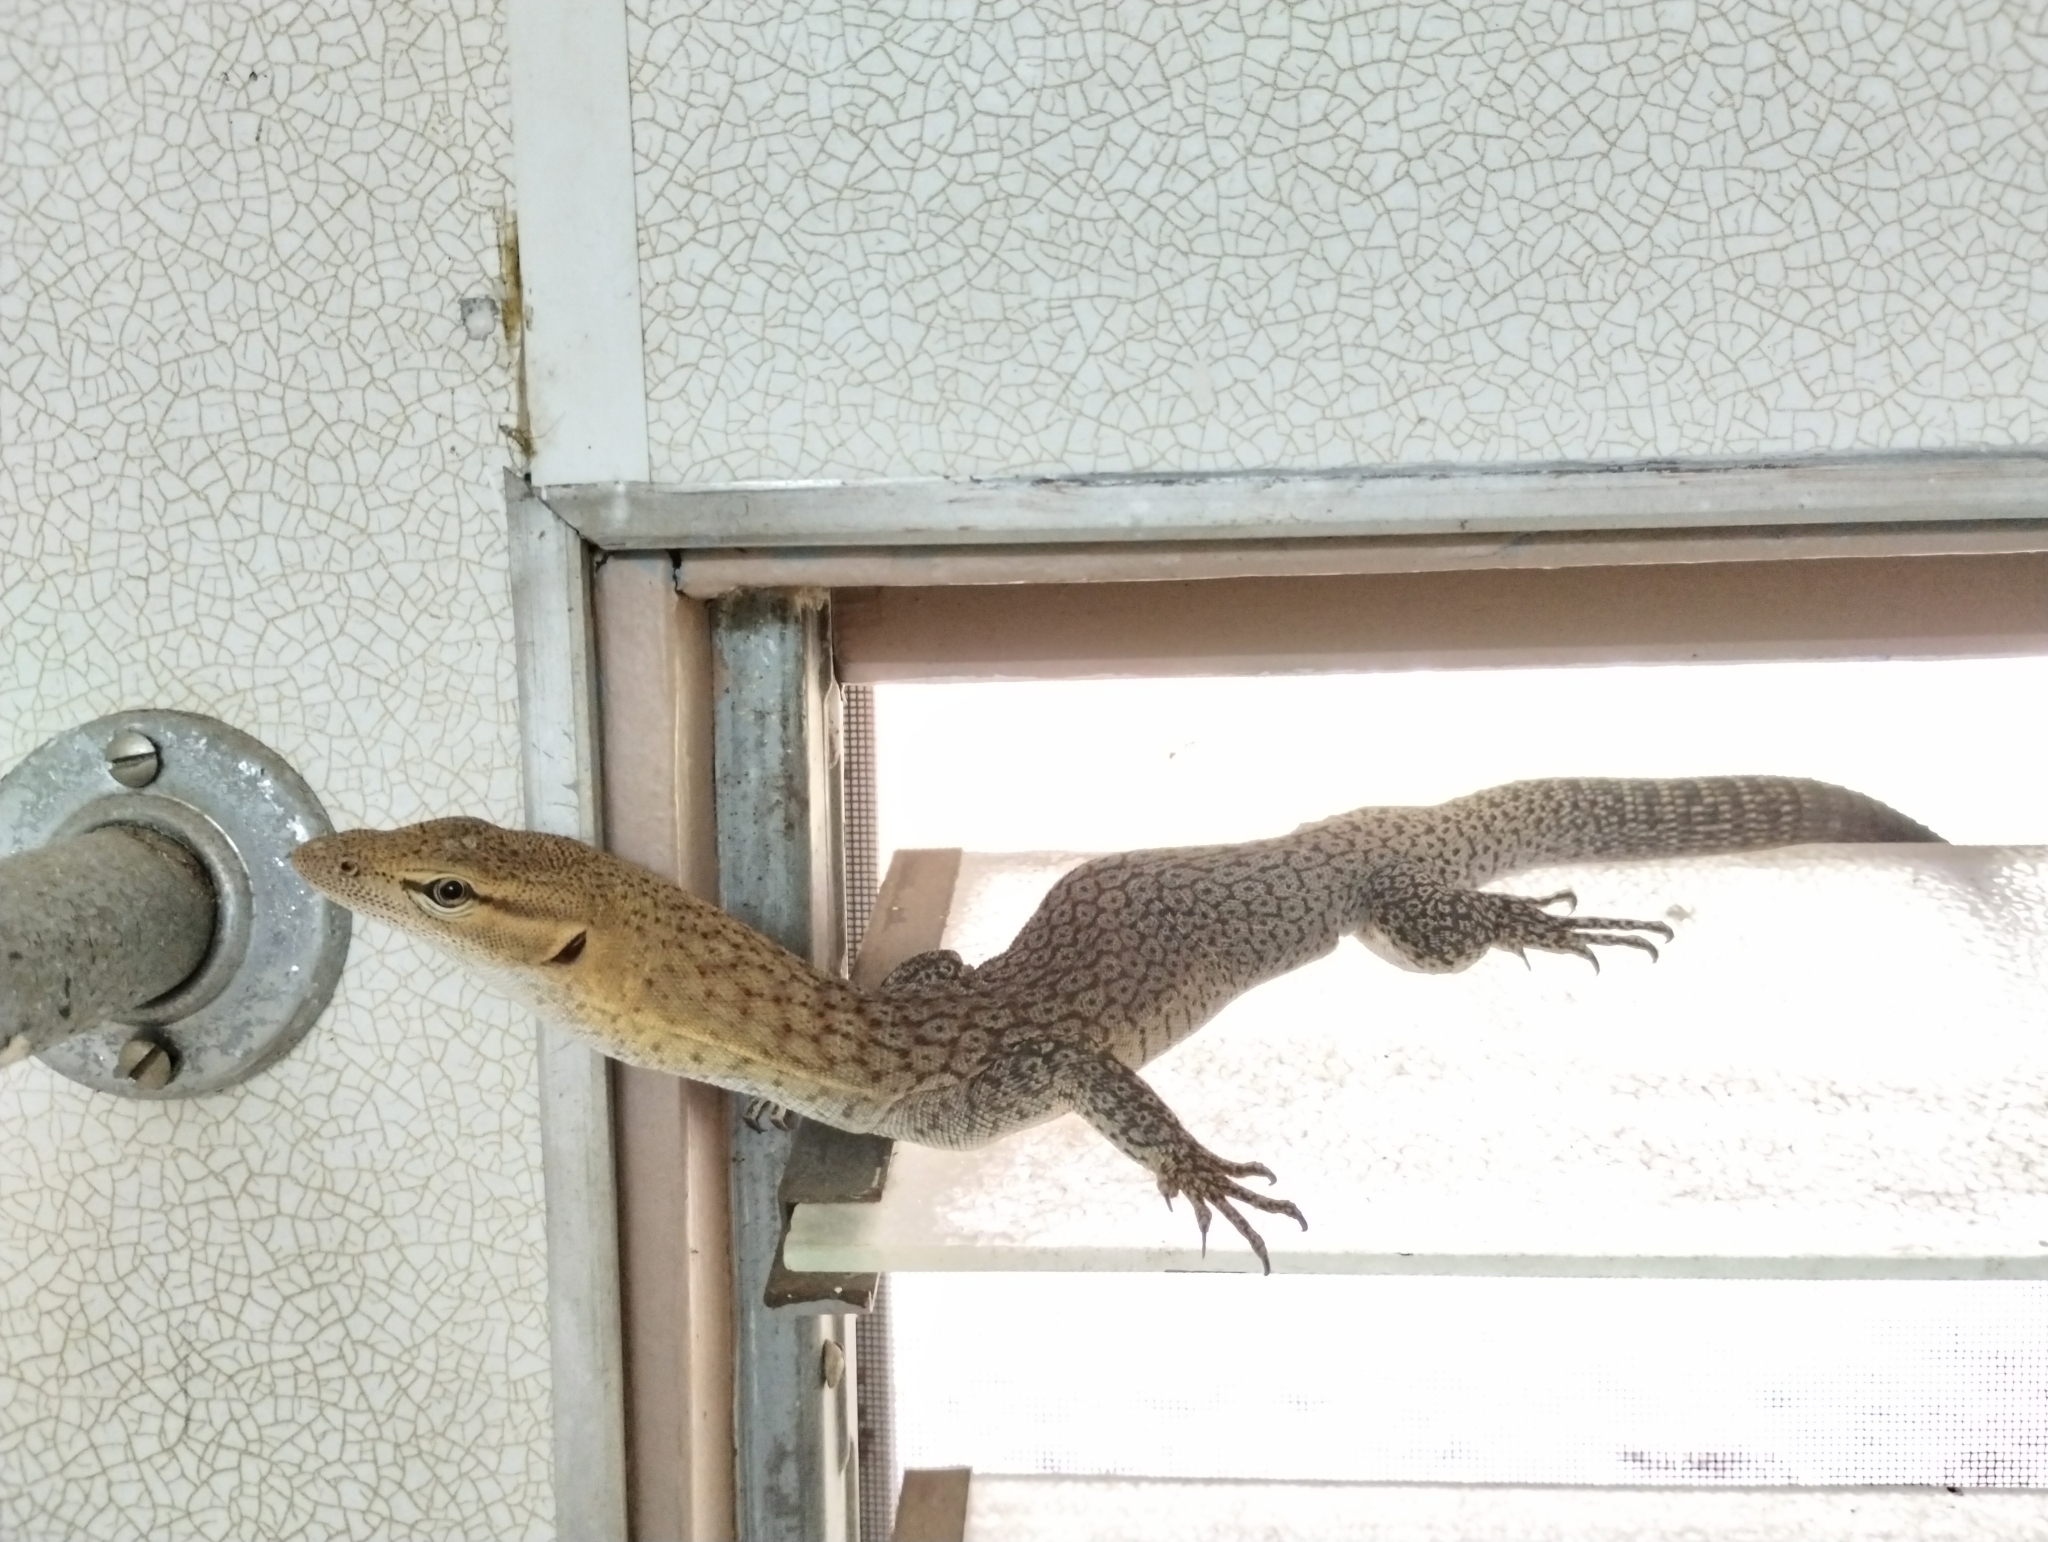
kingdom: Animalia
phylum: Chordata
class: Squamata
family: Varanidae
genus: Varanus
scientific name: Varanus tristis
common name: Arid monitor
